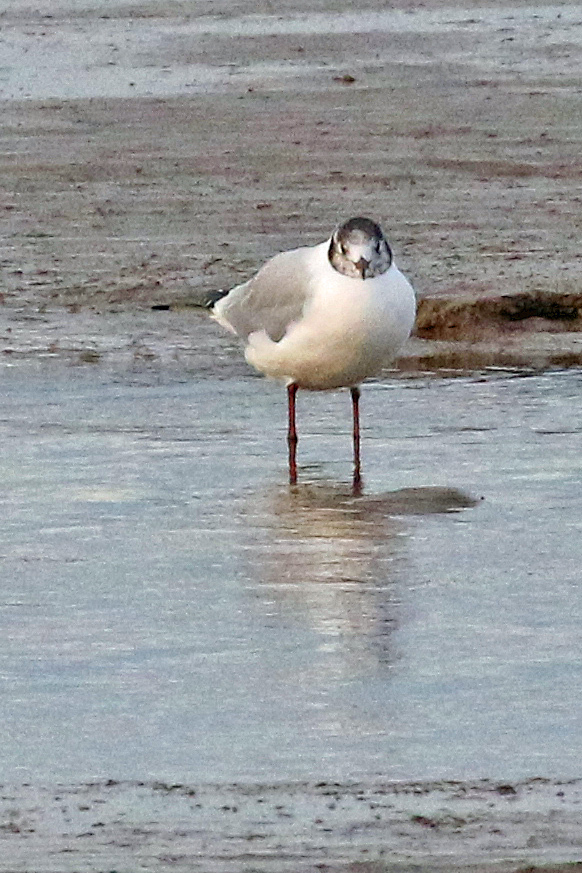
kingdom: Animalia
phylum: Chordata
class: Aves
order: Charadriiformes
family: Laridae
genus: Chroicocephalus
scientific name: Chroicocephalus ridibundus
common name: Black-headed gull
